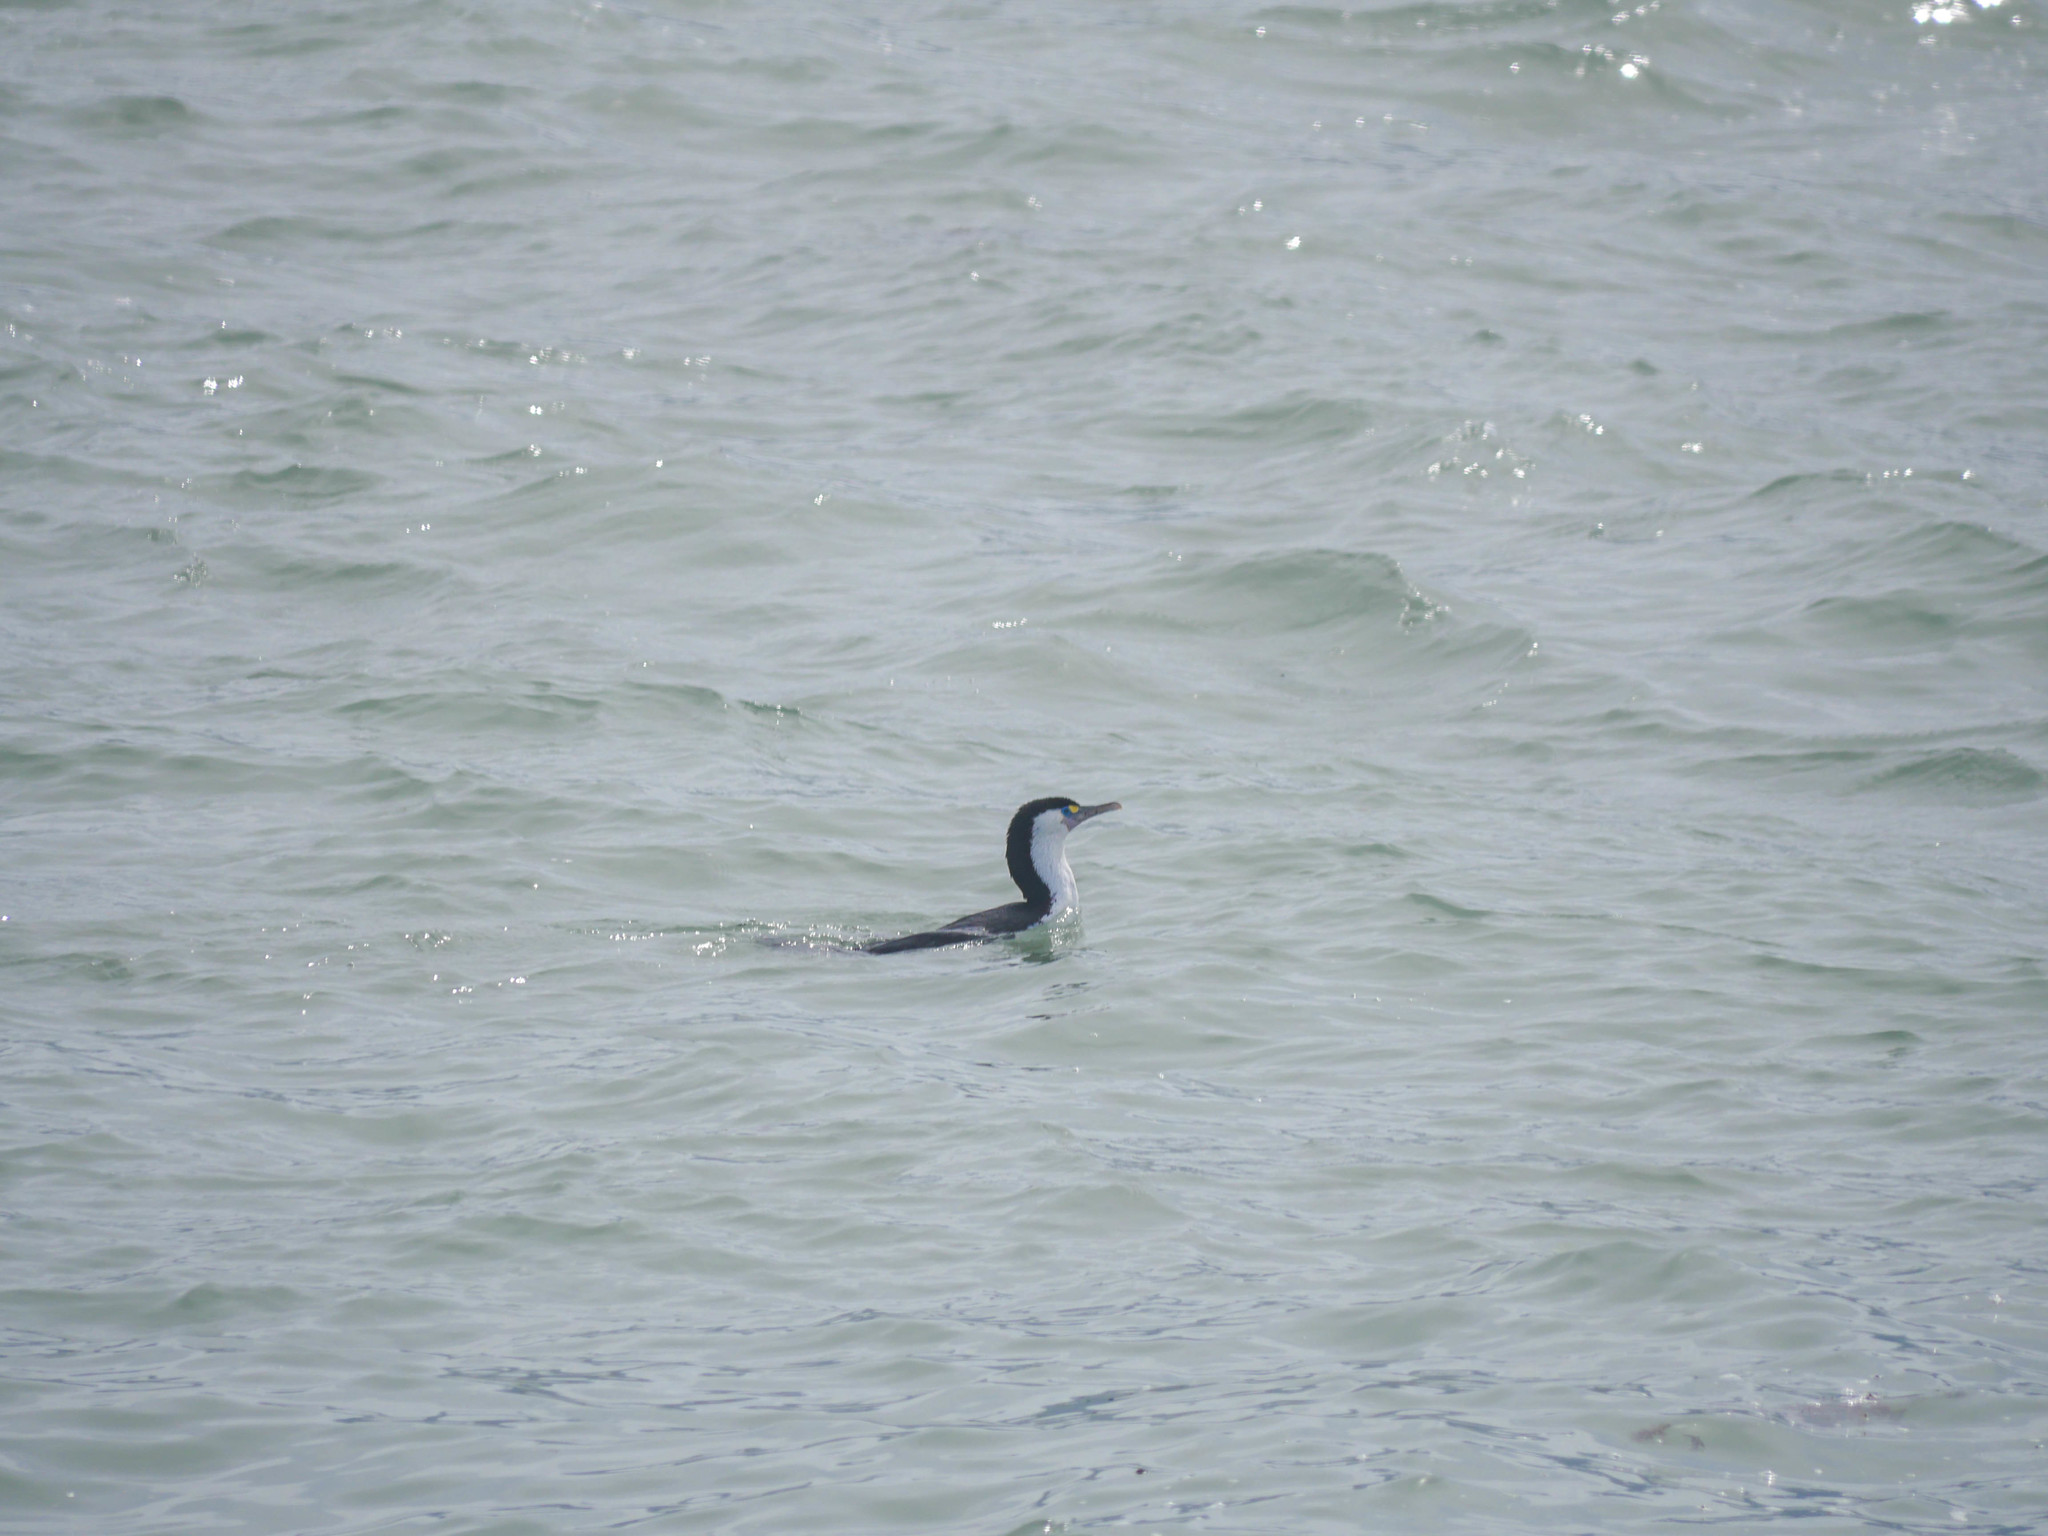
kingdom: Animalia
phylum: Chordata
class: Aves
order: Suliformes
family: Phalacrocoracidae
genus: Phalacrocorax
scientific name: Phalacrocorax varius
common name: Pied cormorant
